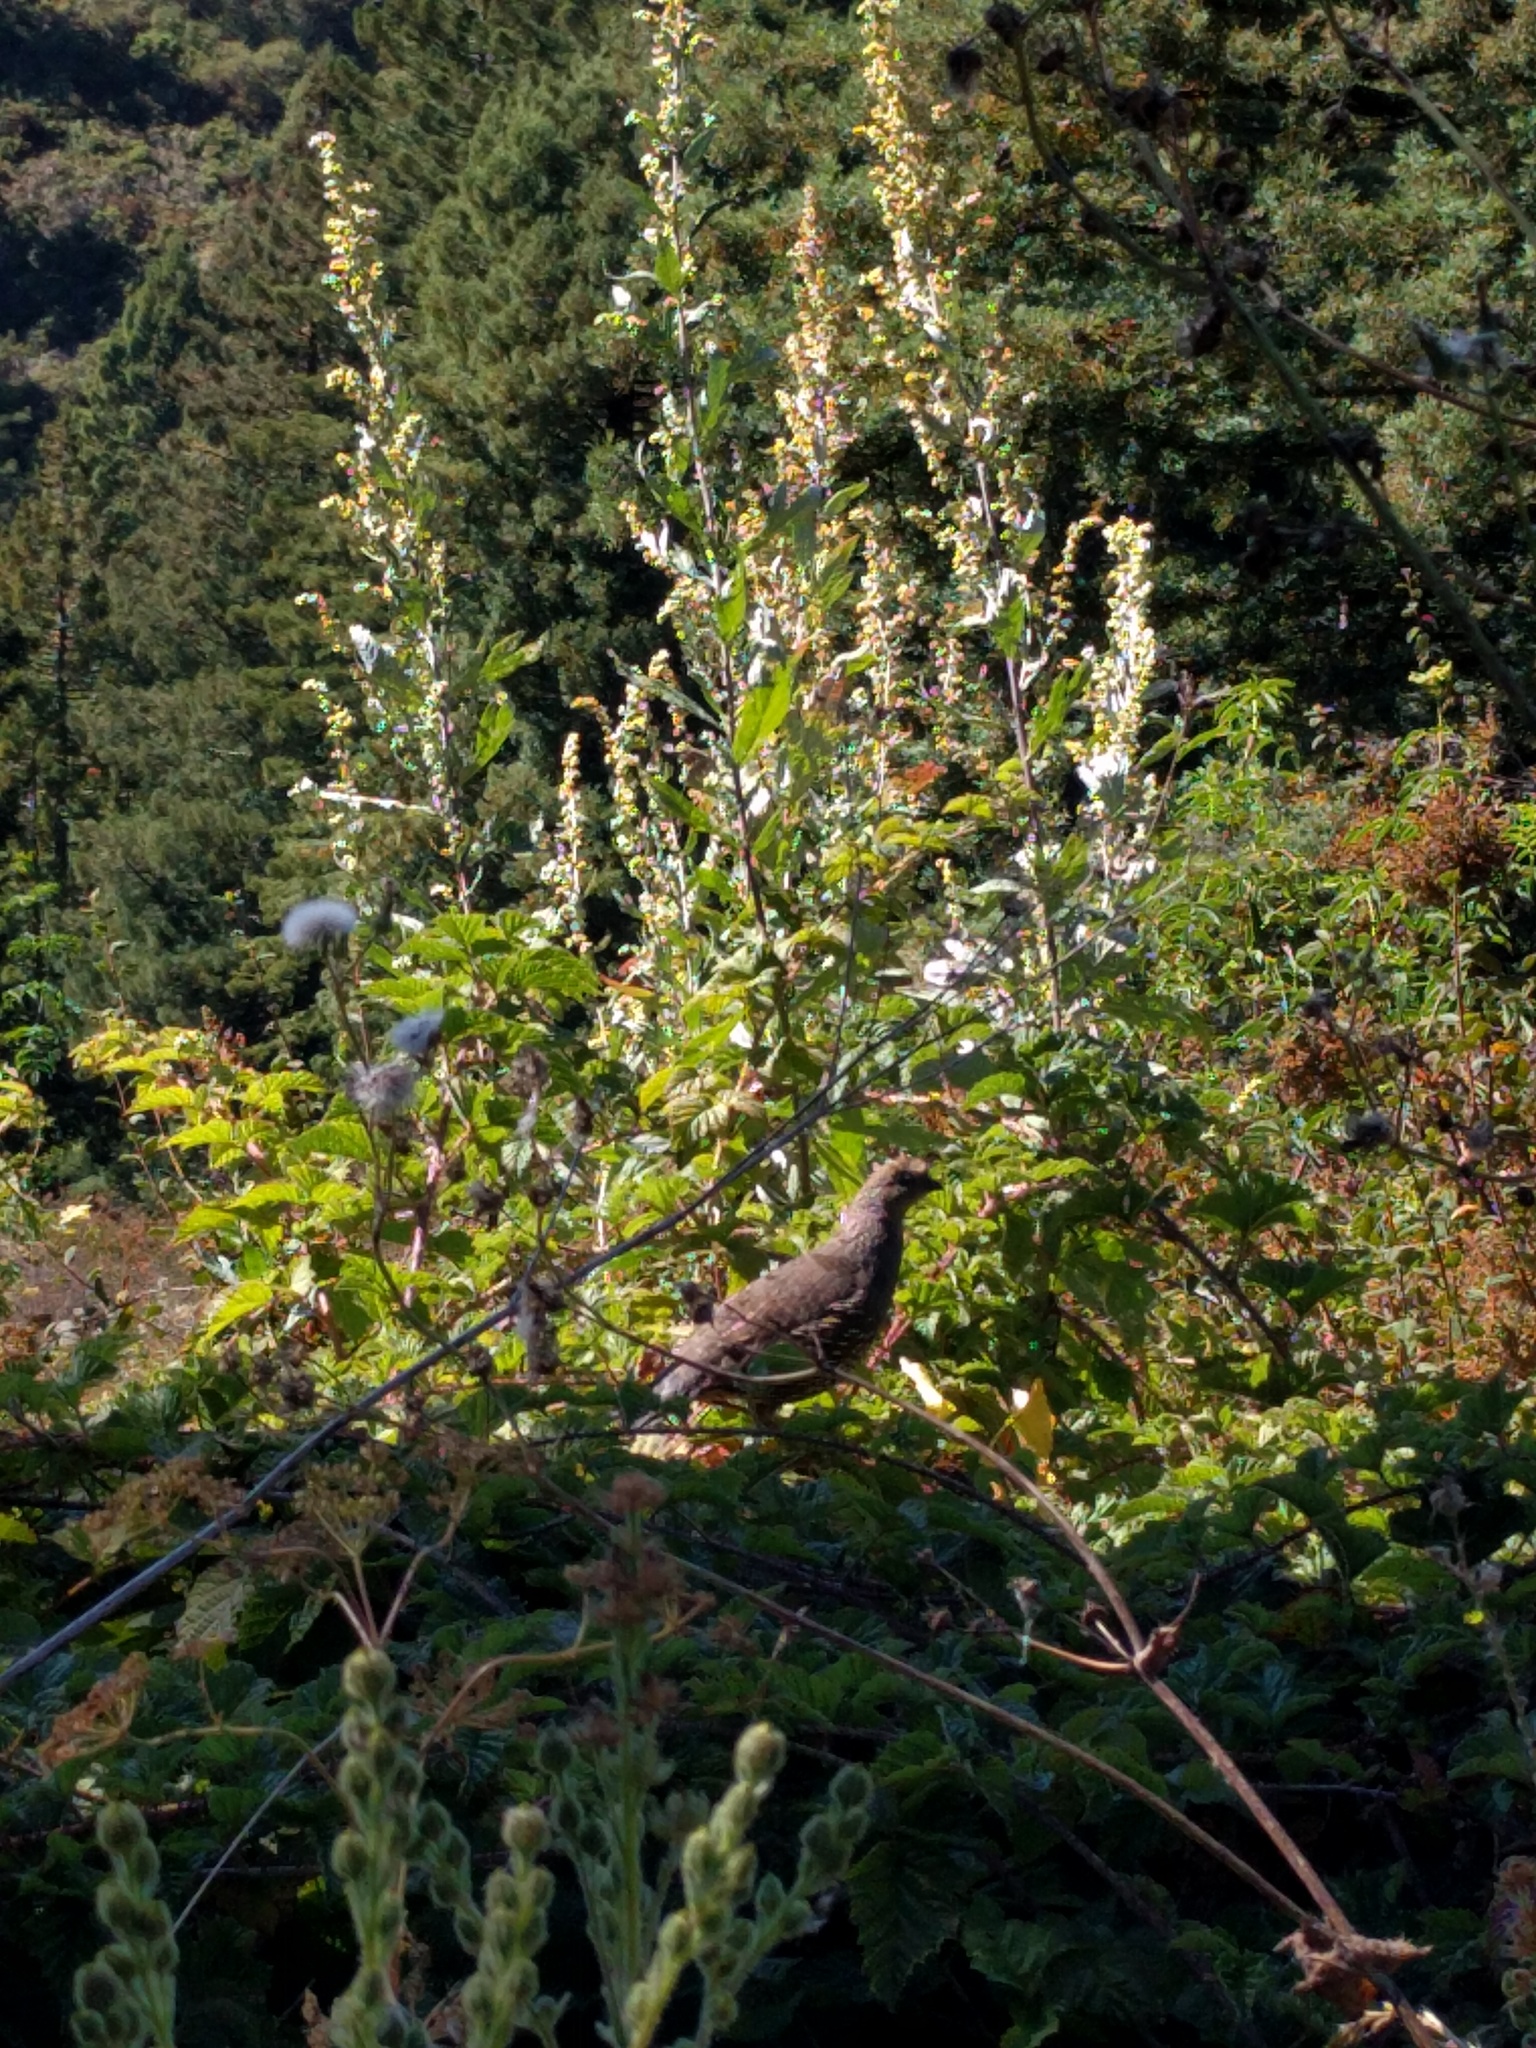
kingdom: Animalia
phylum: Chordata
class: Aves
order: Galliformes
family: Odontophoridae
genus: Callipepla
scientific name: Callipepla californica
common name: California quail
